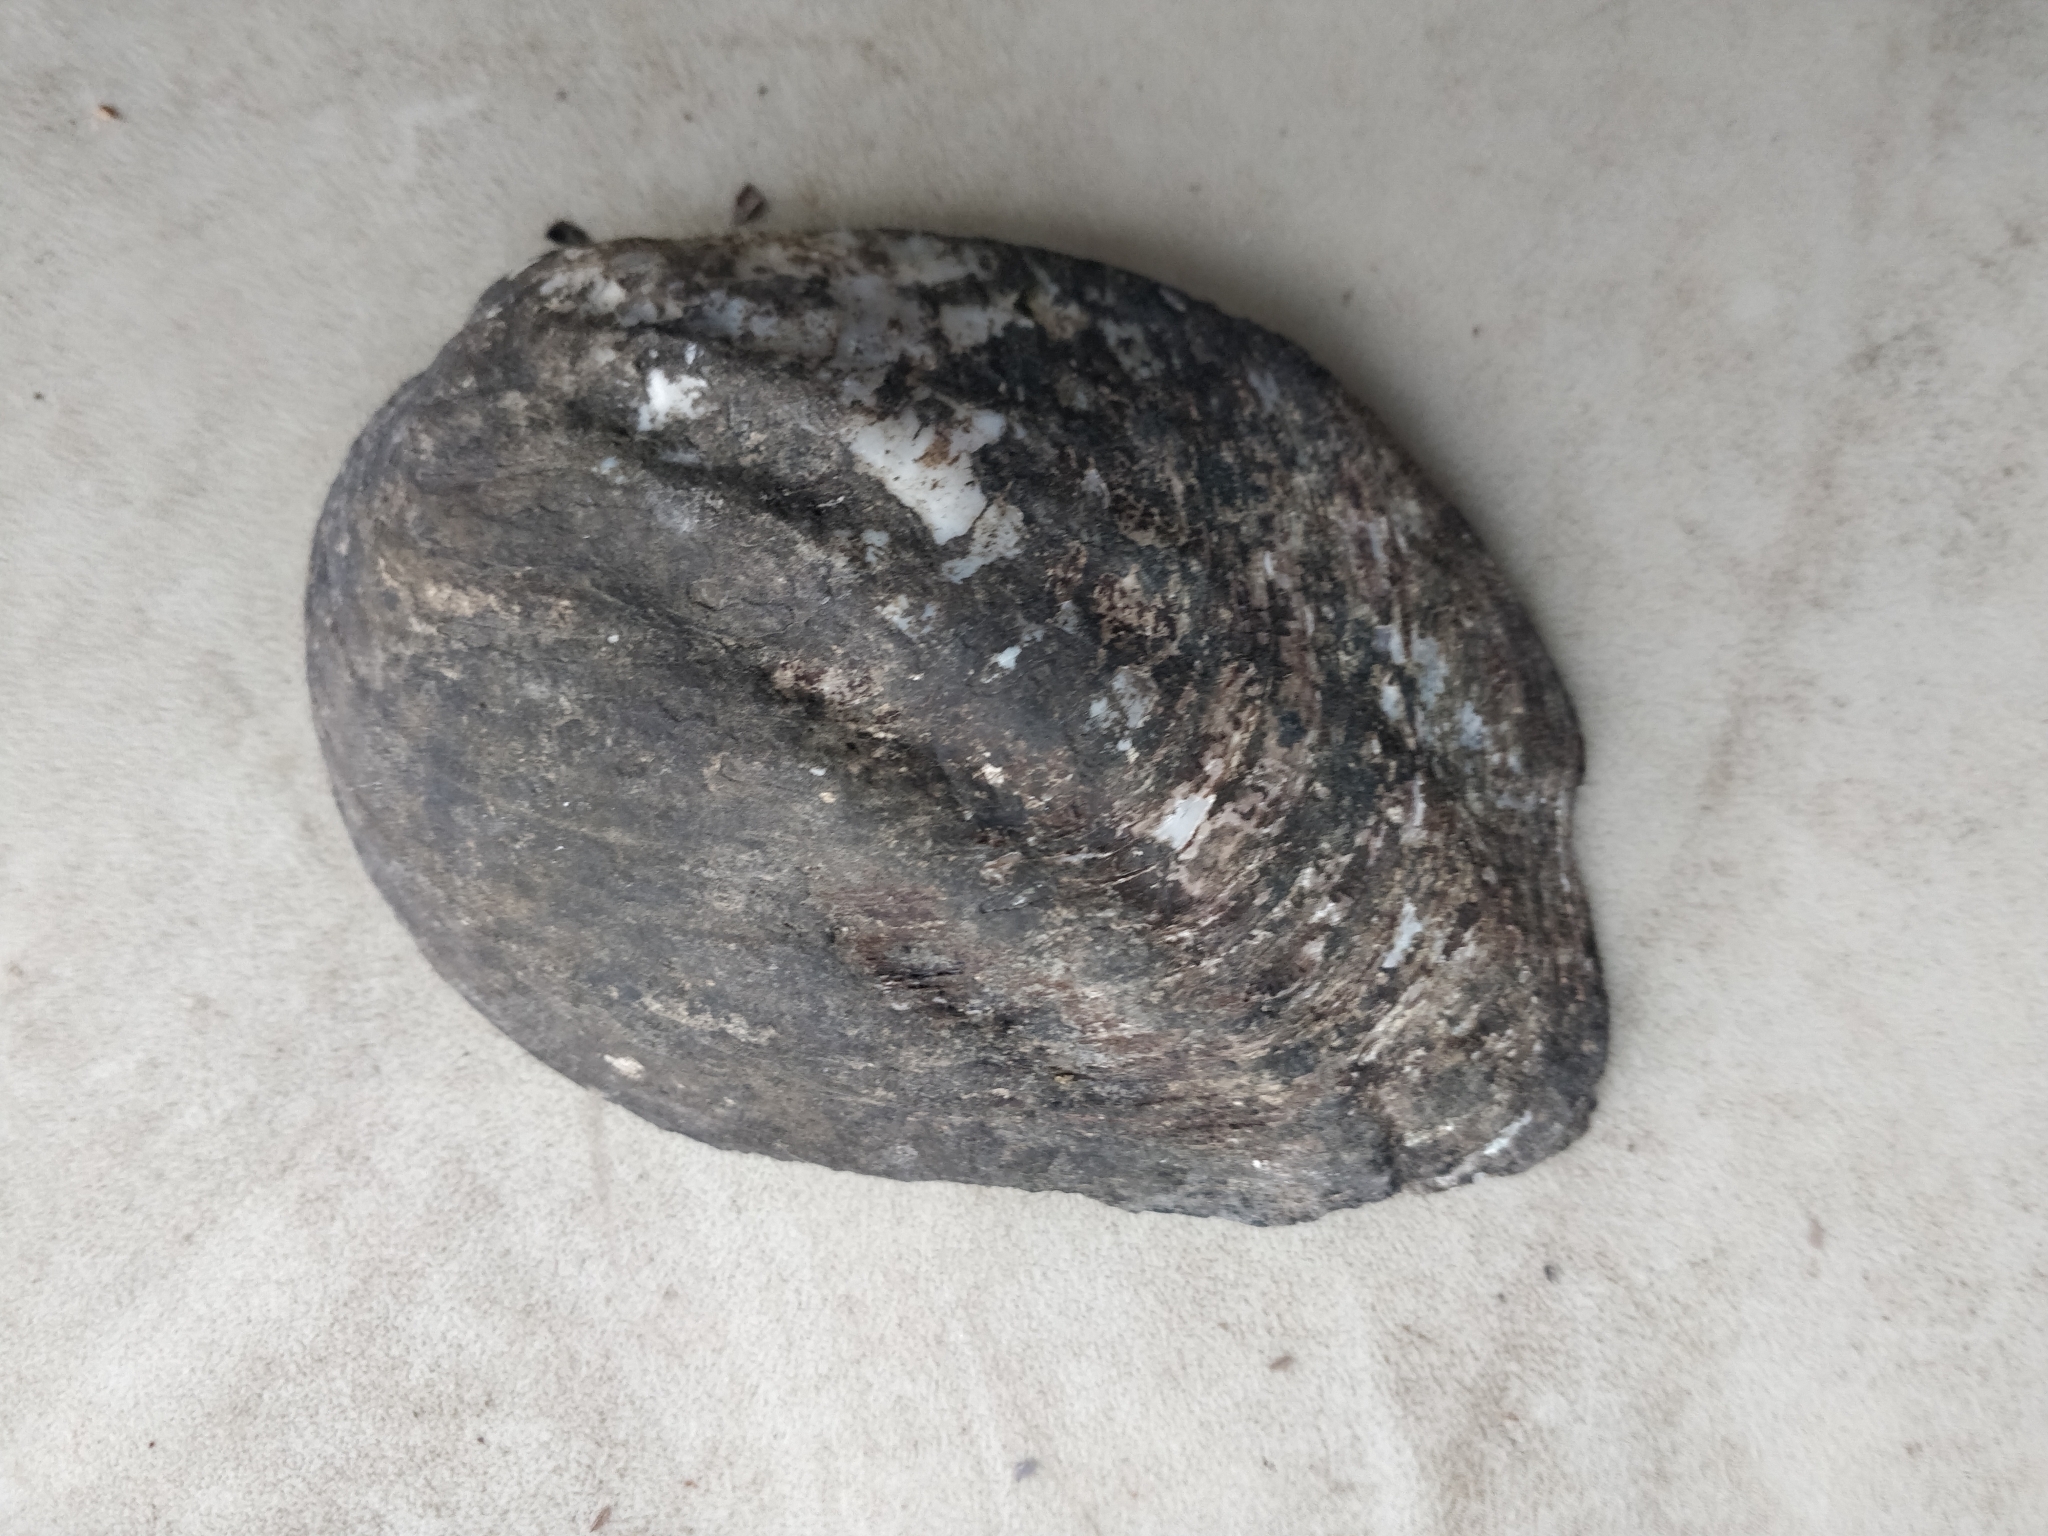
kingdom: Animalia
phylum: Mollusca
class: Bivalvia
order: Unionida
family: Unionidae
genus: Amblema
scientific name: Amblema plicata
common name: Threeridge
